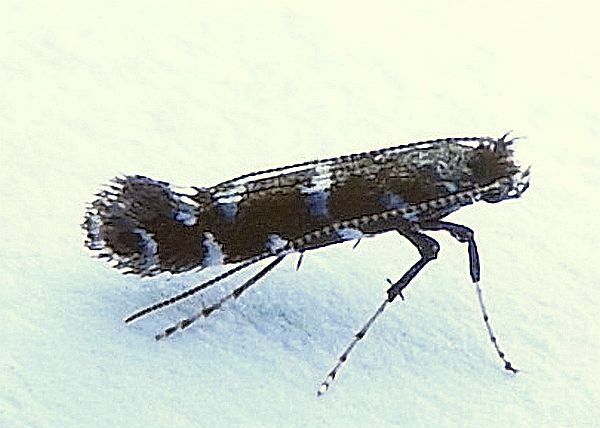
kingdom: Animalia
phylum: Arthropoda
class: Insecta
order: Lepidoptera
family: Gracillariidae
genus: Parornix
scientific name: Parornix preciosella
